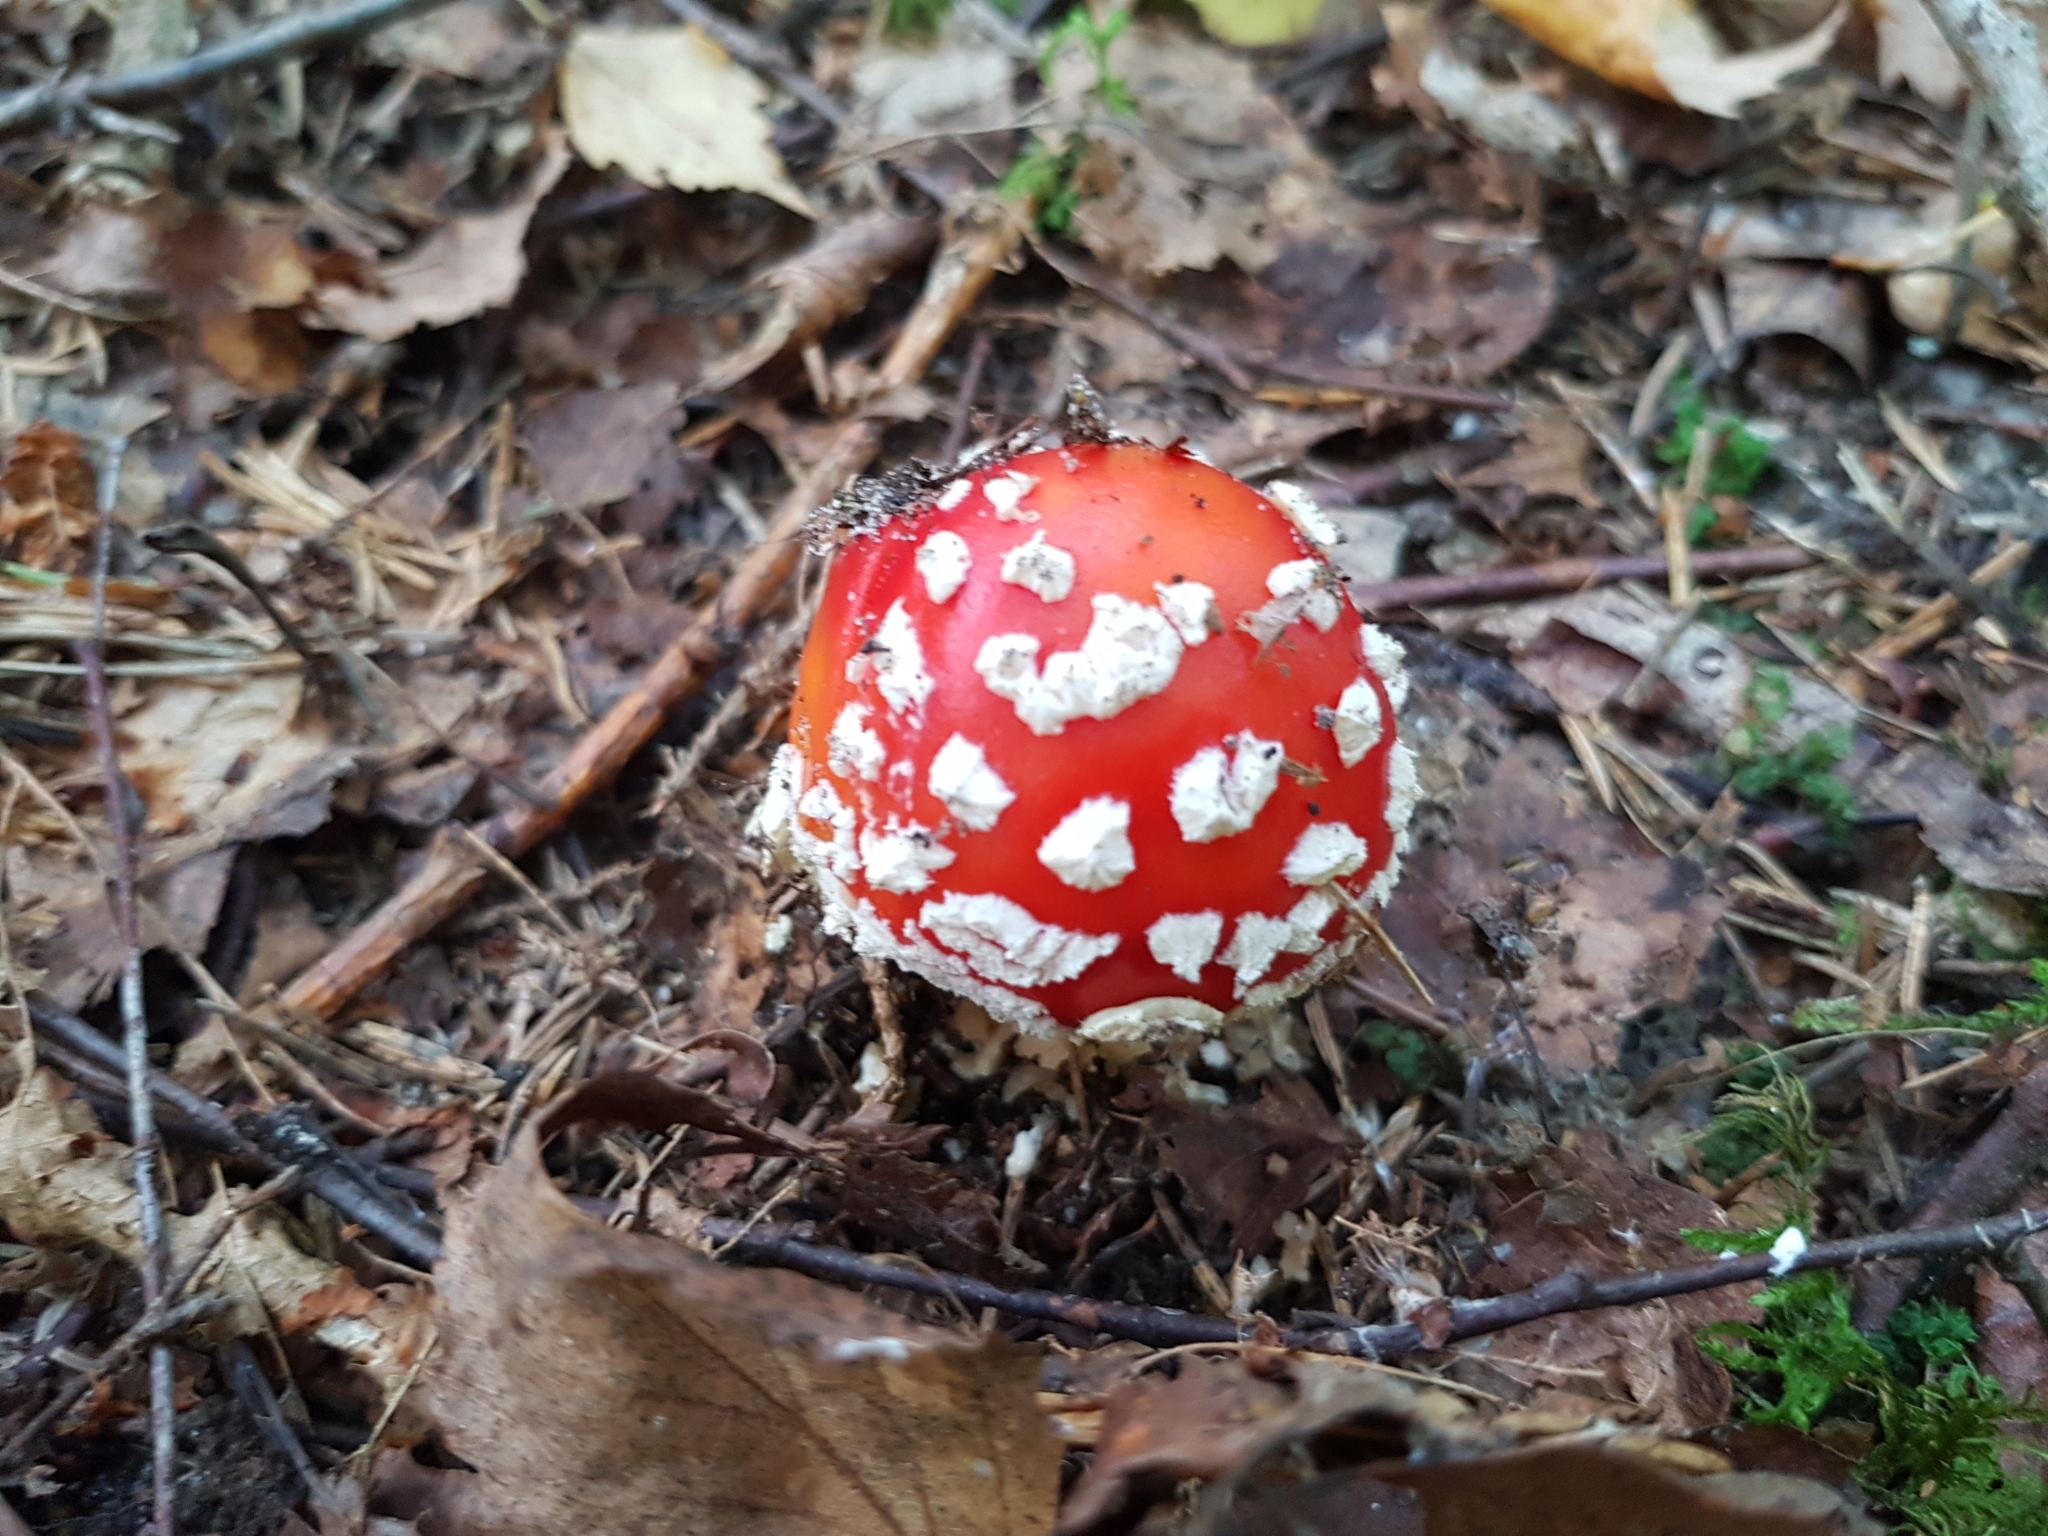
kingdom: Fungi
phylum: Basidiomycota
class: Agaricomycetes
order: Agaricales
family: Amanitaceae
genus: Amanita
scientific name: Amanita muscaria
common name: Fly agaric
